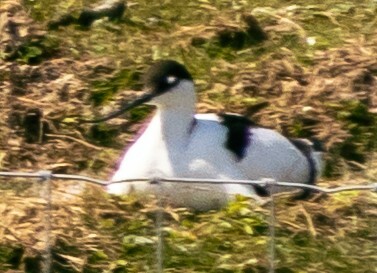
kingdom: Animalia
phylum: Chordata
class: Aves
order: Charadriiformes
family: Recurvirostridae
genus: Recurvirostra
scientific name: Recurvirostra avosetta
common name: Pied avocet
